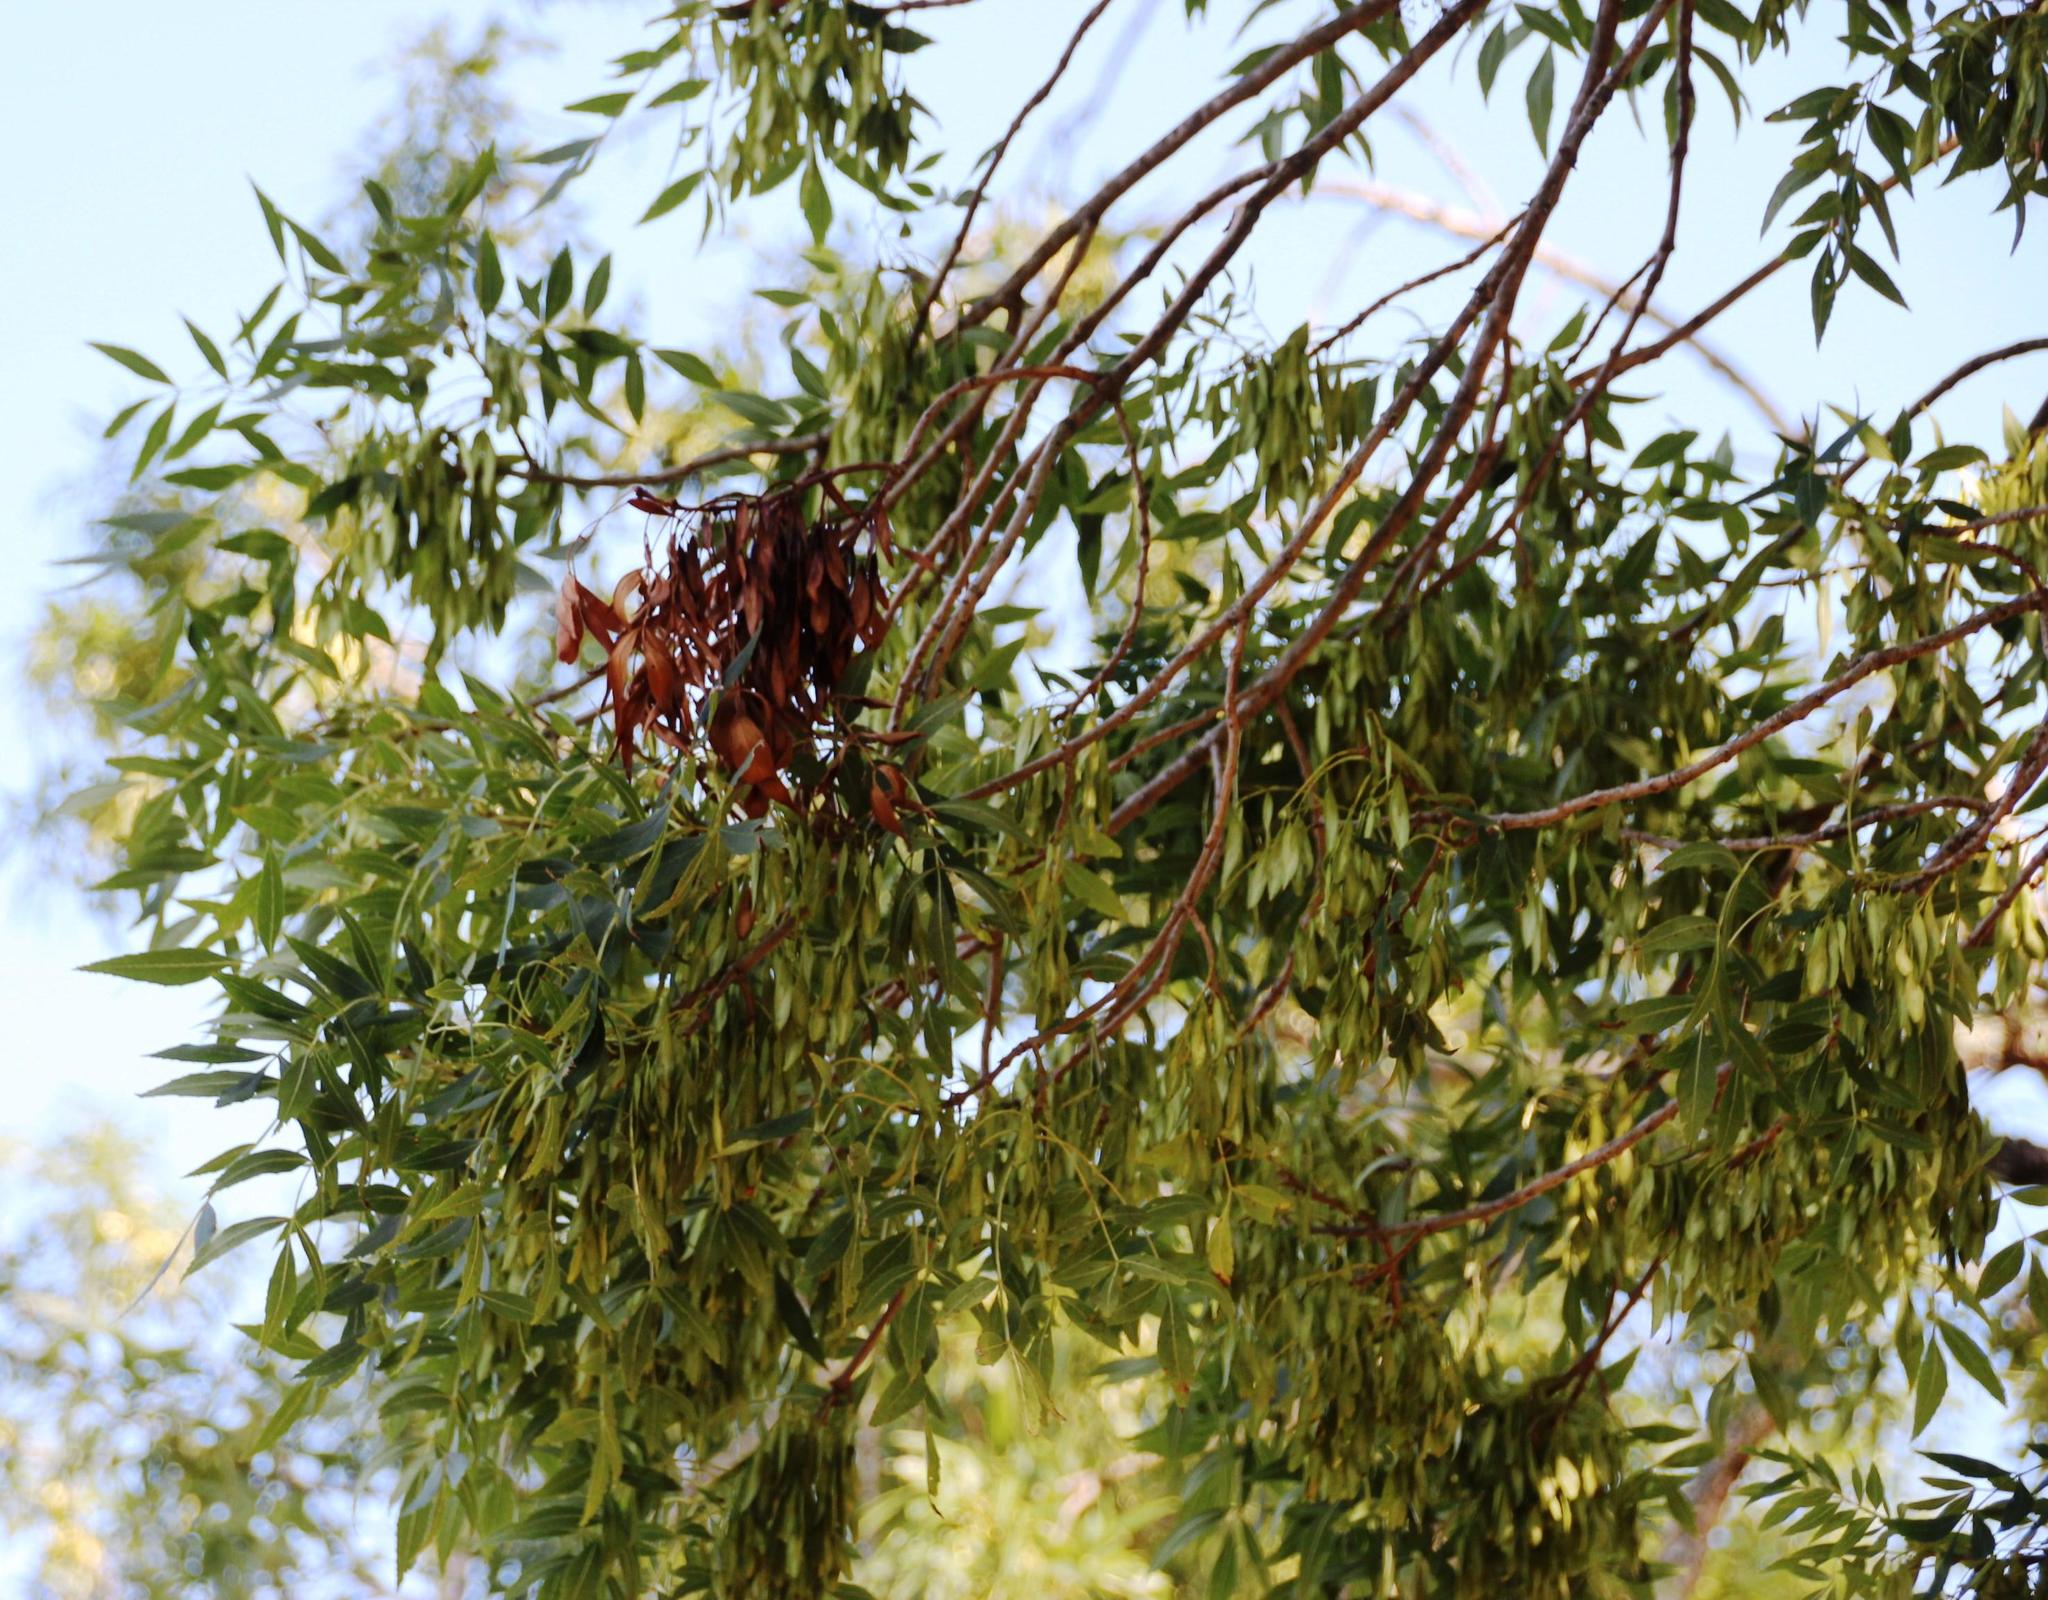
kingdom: Plantae
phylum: Tracheophyta
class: Magnoliopsida
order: Lamiales
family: Oleaceae
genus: Fraxinus
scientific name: Fraxinus angustifolia
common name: Narrow-leafed ash
